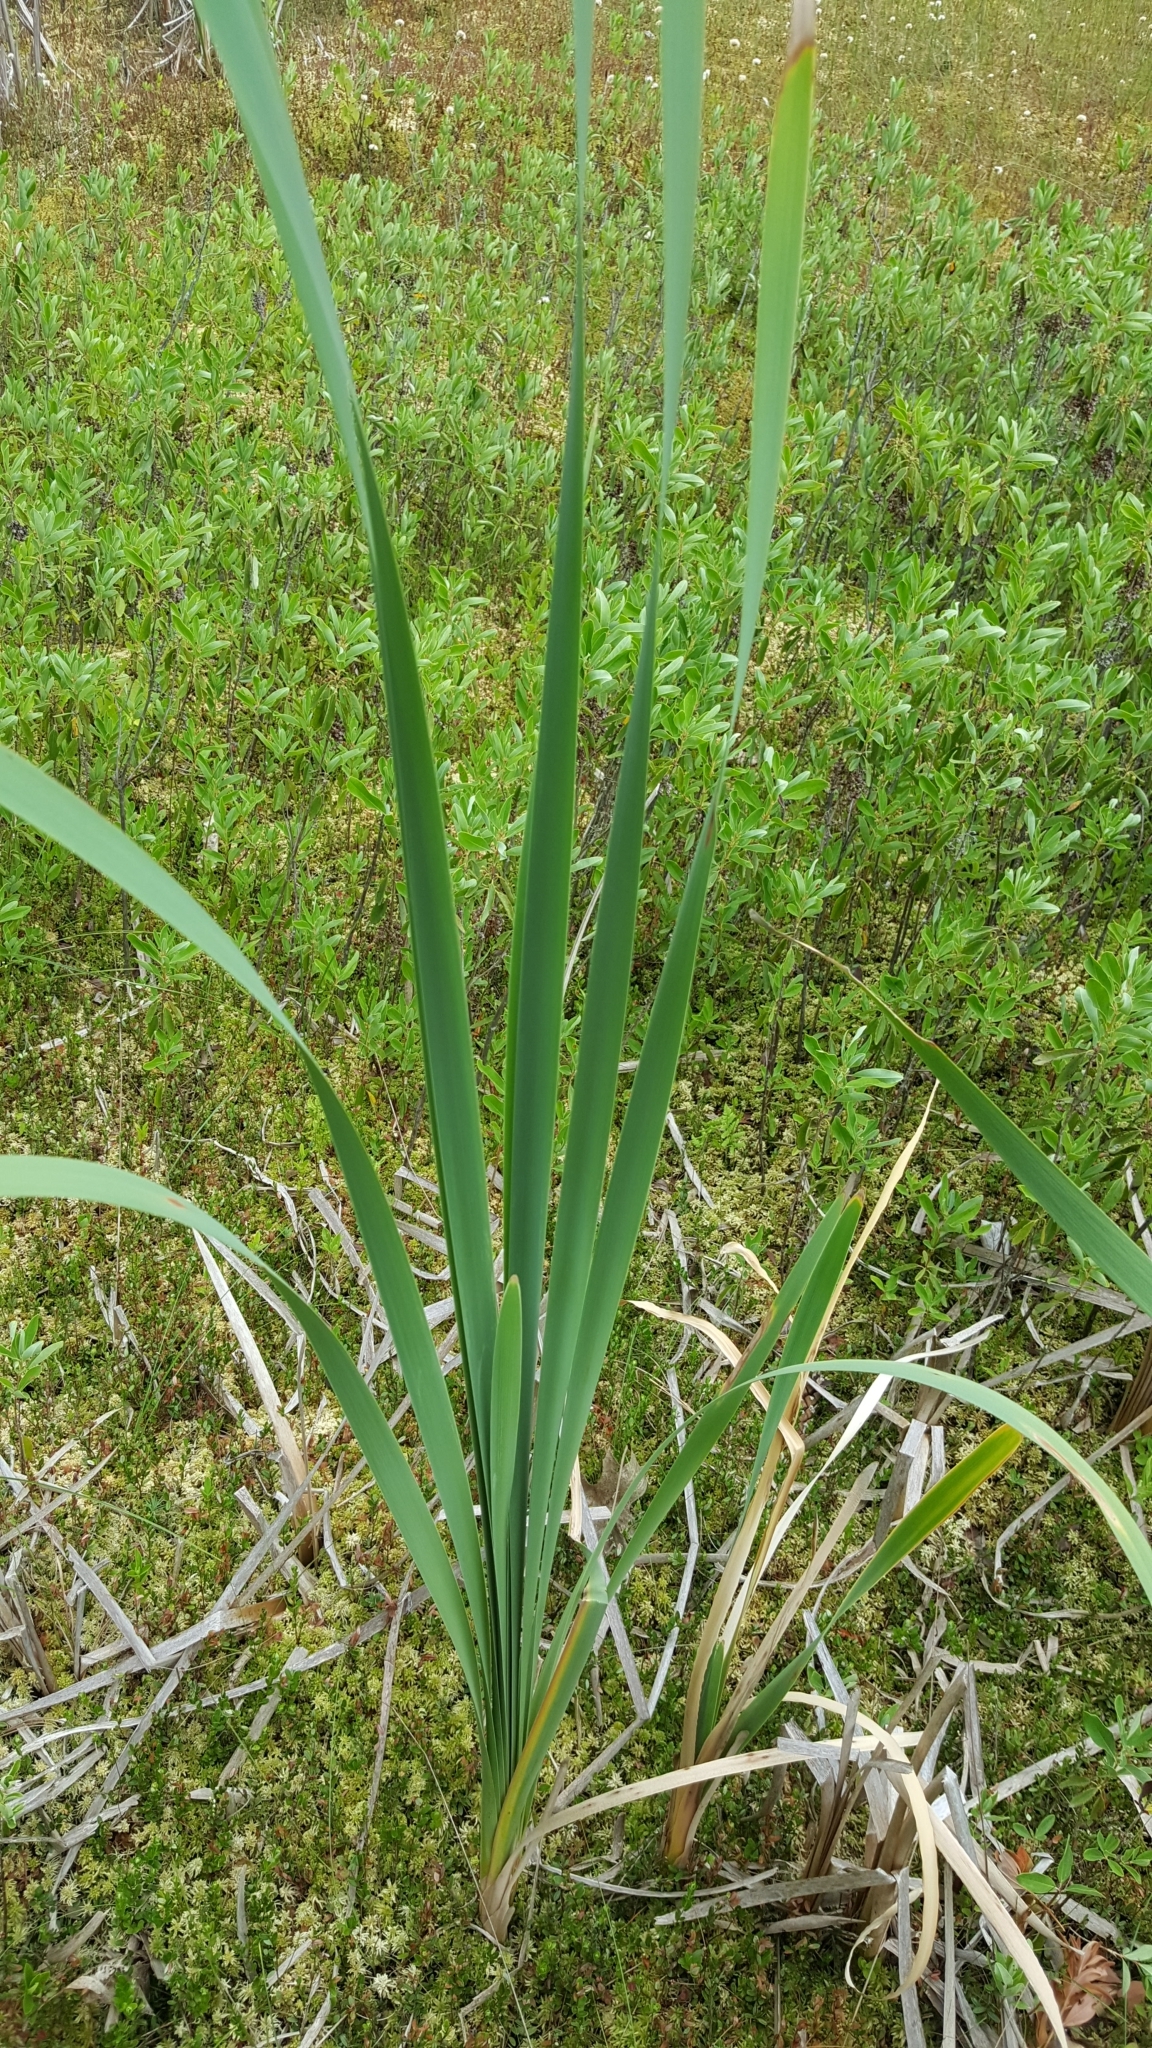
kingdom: Plantae
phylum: Tracheophyta
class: Liliopsida
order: Poales
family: Typhaceae
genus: Typha
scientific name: Typha latifolia
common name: Broadleaf cattail
